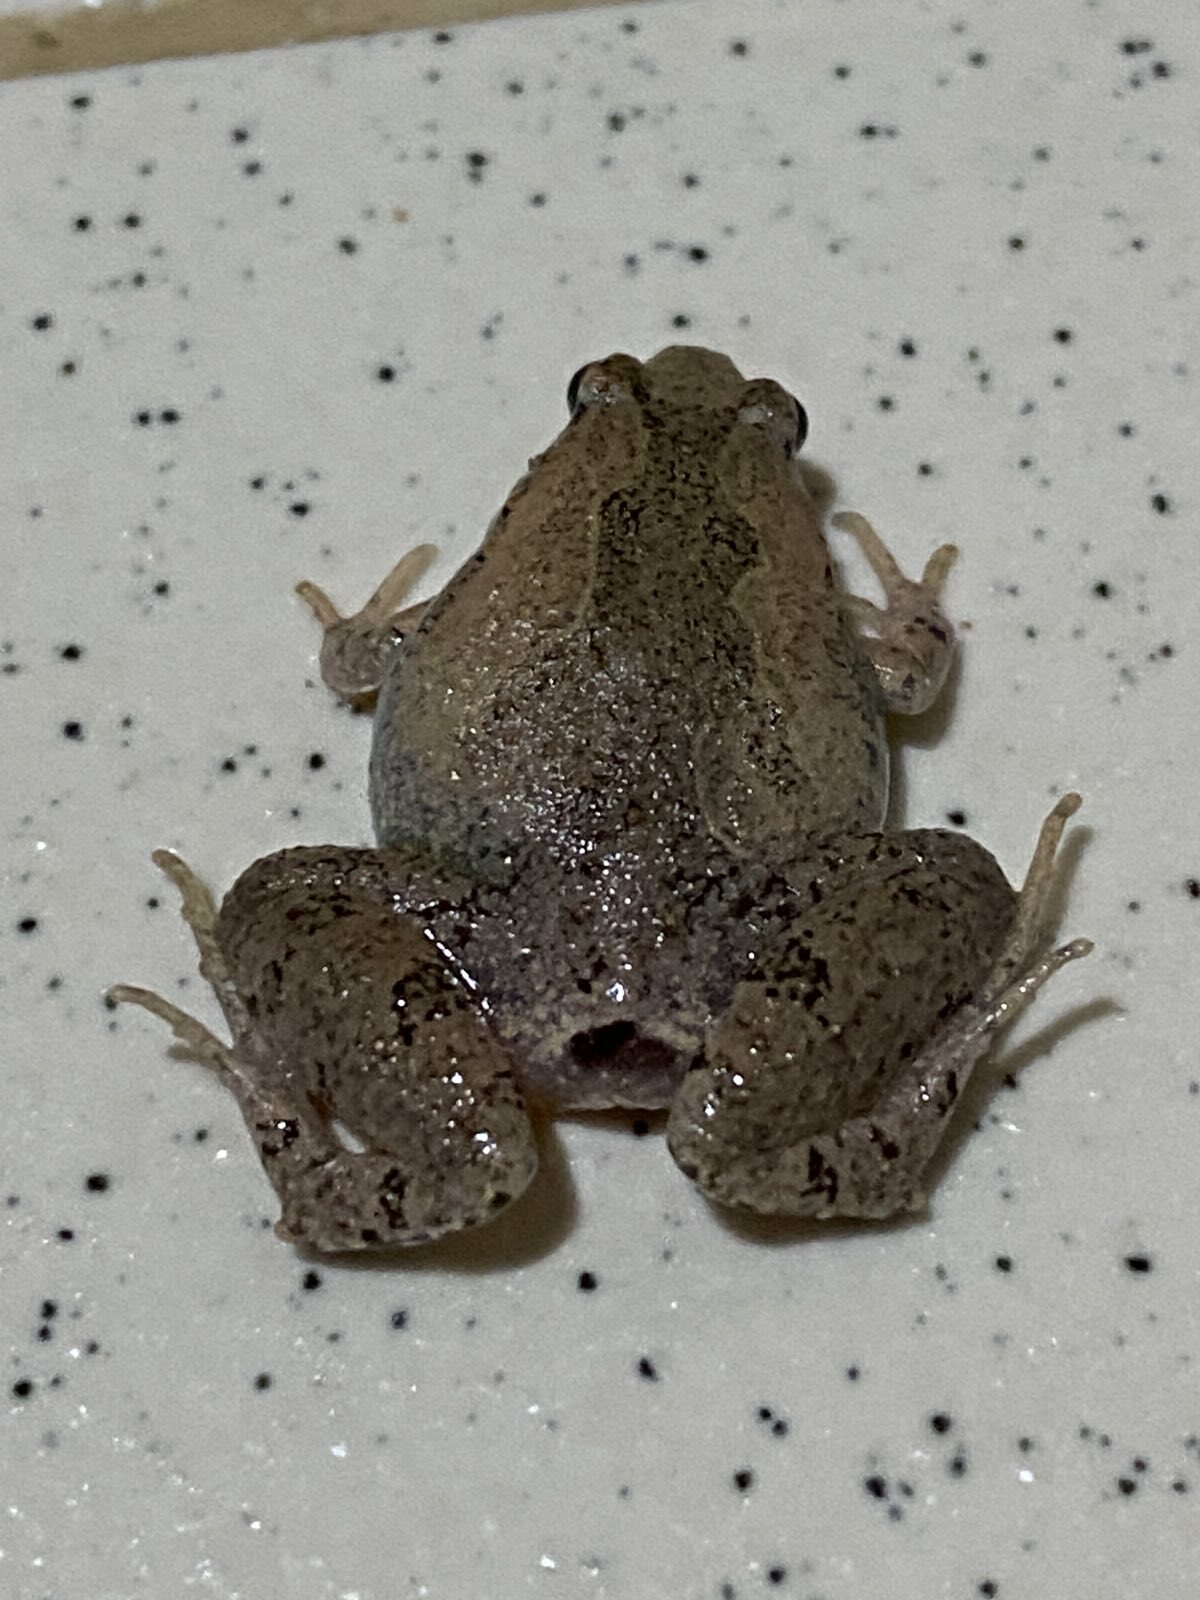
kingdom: Animalia
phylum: Chordata
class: Amphibia
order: Anura
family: Microhylidae
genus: Microhyla
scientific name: Microhyla mukhlesuri
